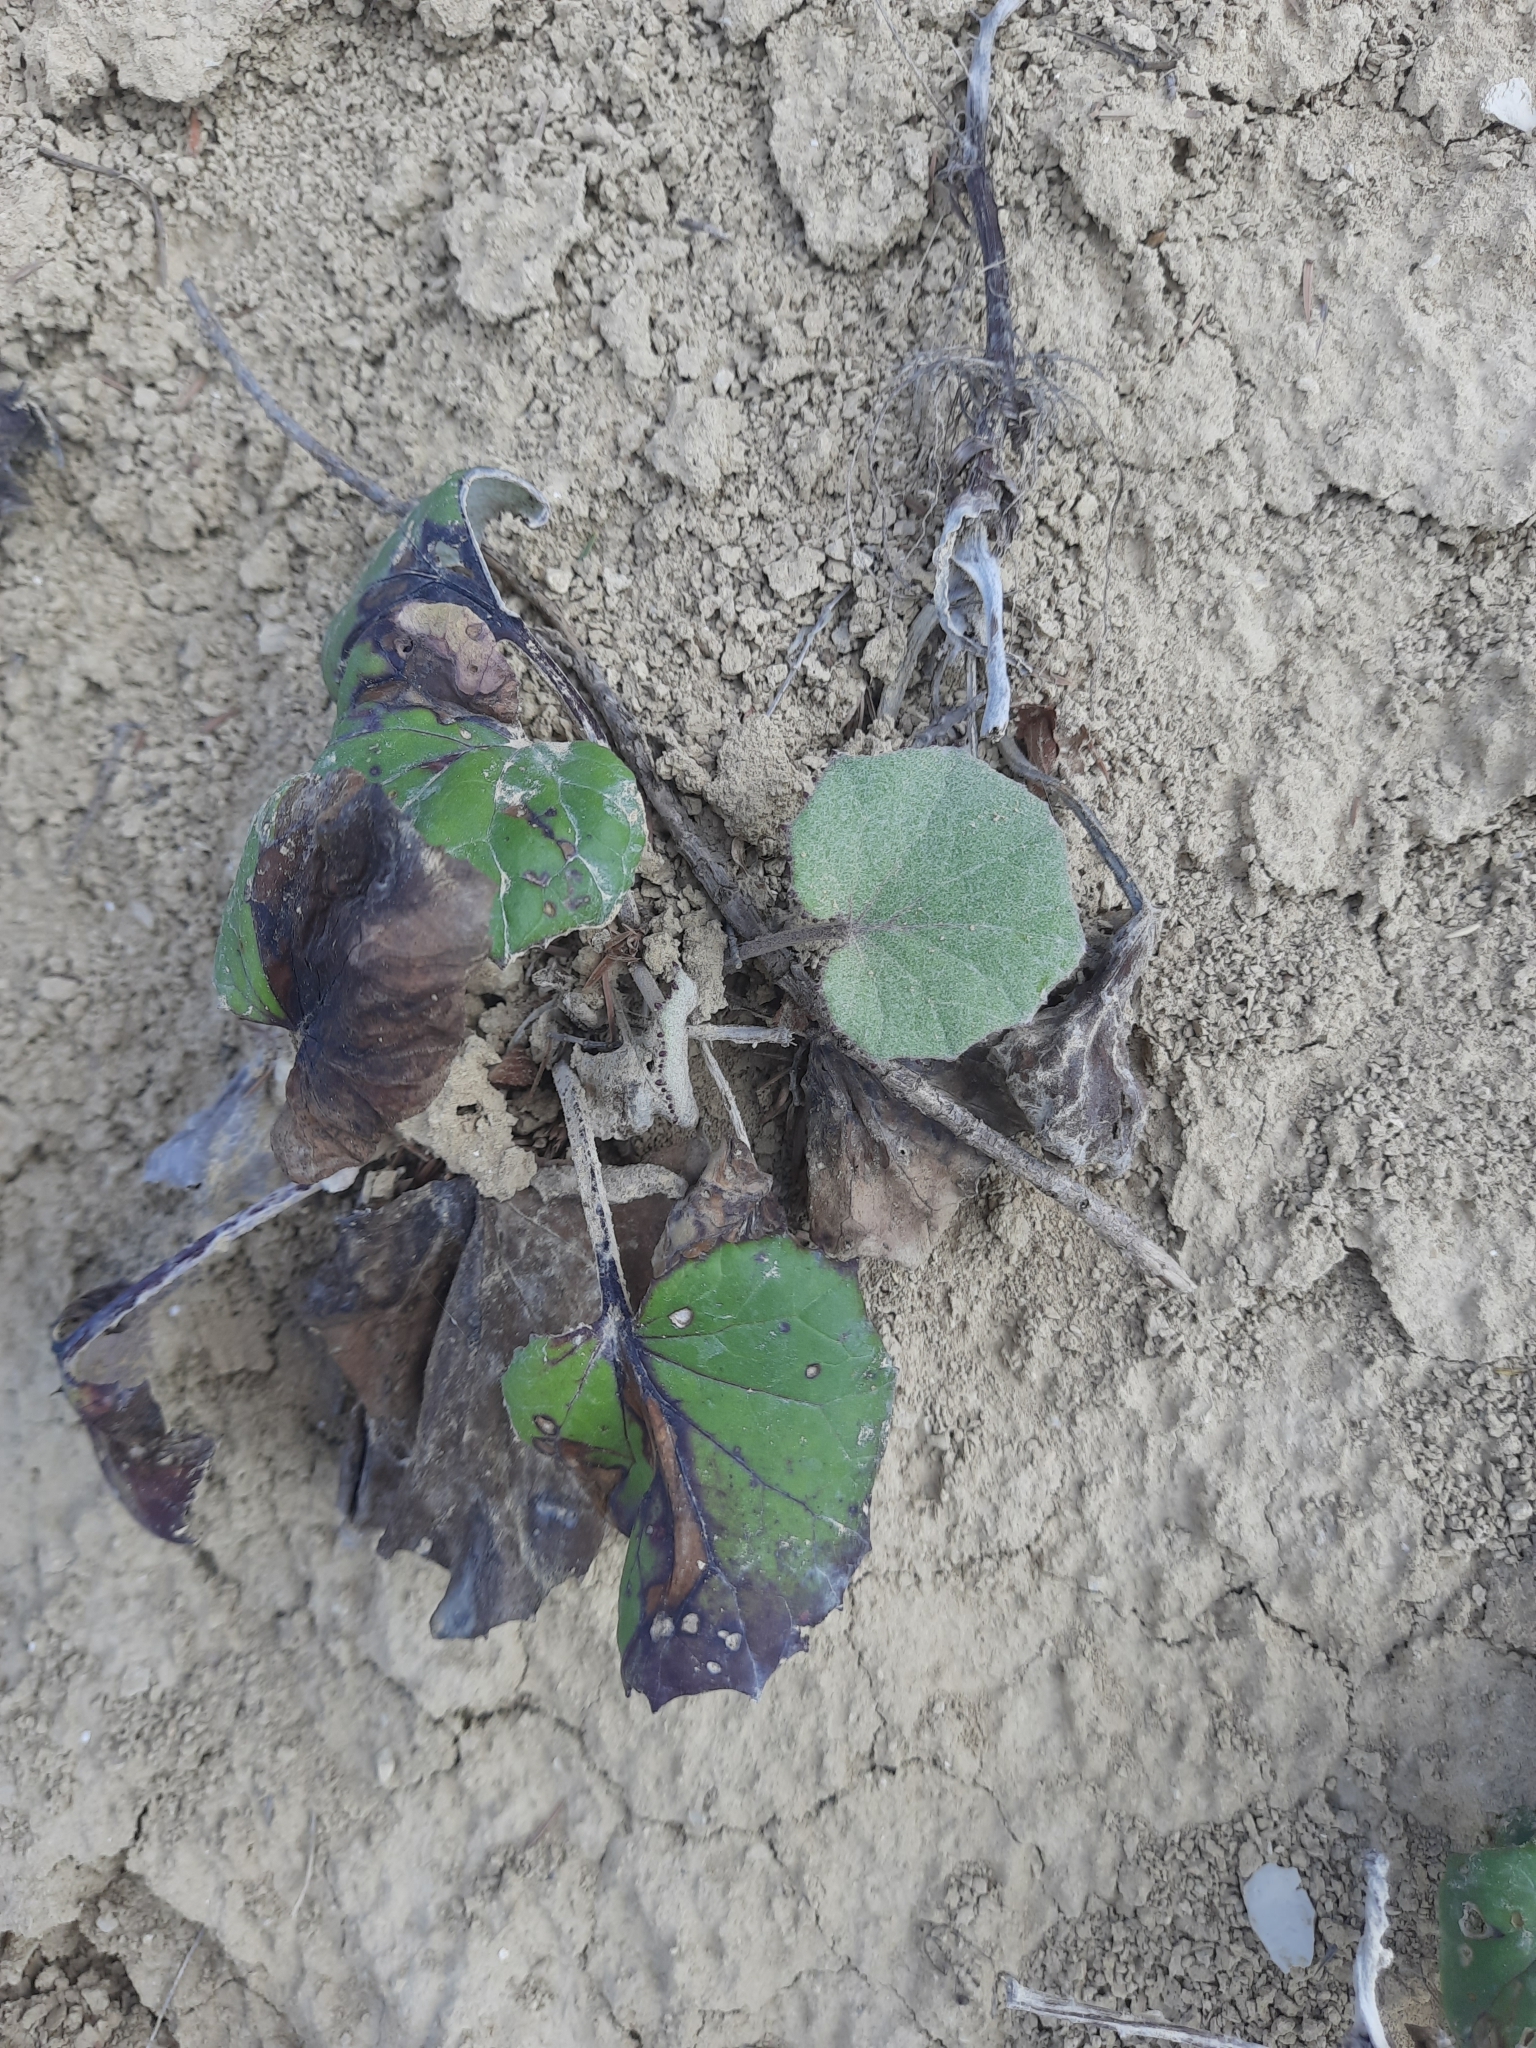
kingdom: Plantae
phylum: Tracheophyta
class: Magnoliopsida
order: Asterales
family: Asteraceae
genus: Tussilago
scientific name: Tussilago farfara
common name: Coltsfoot
